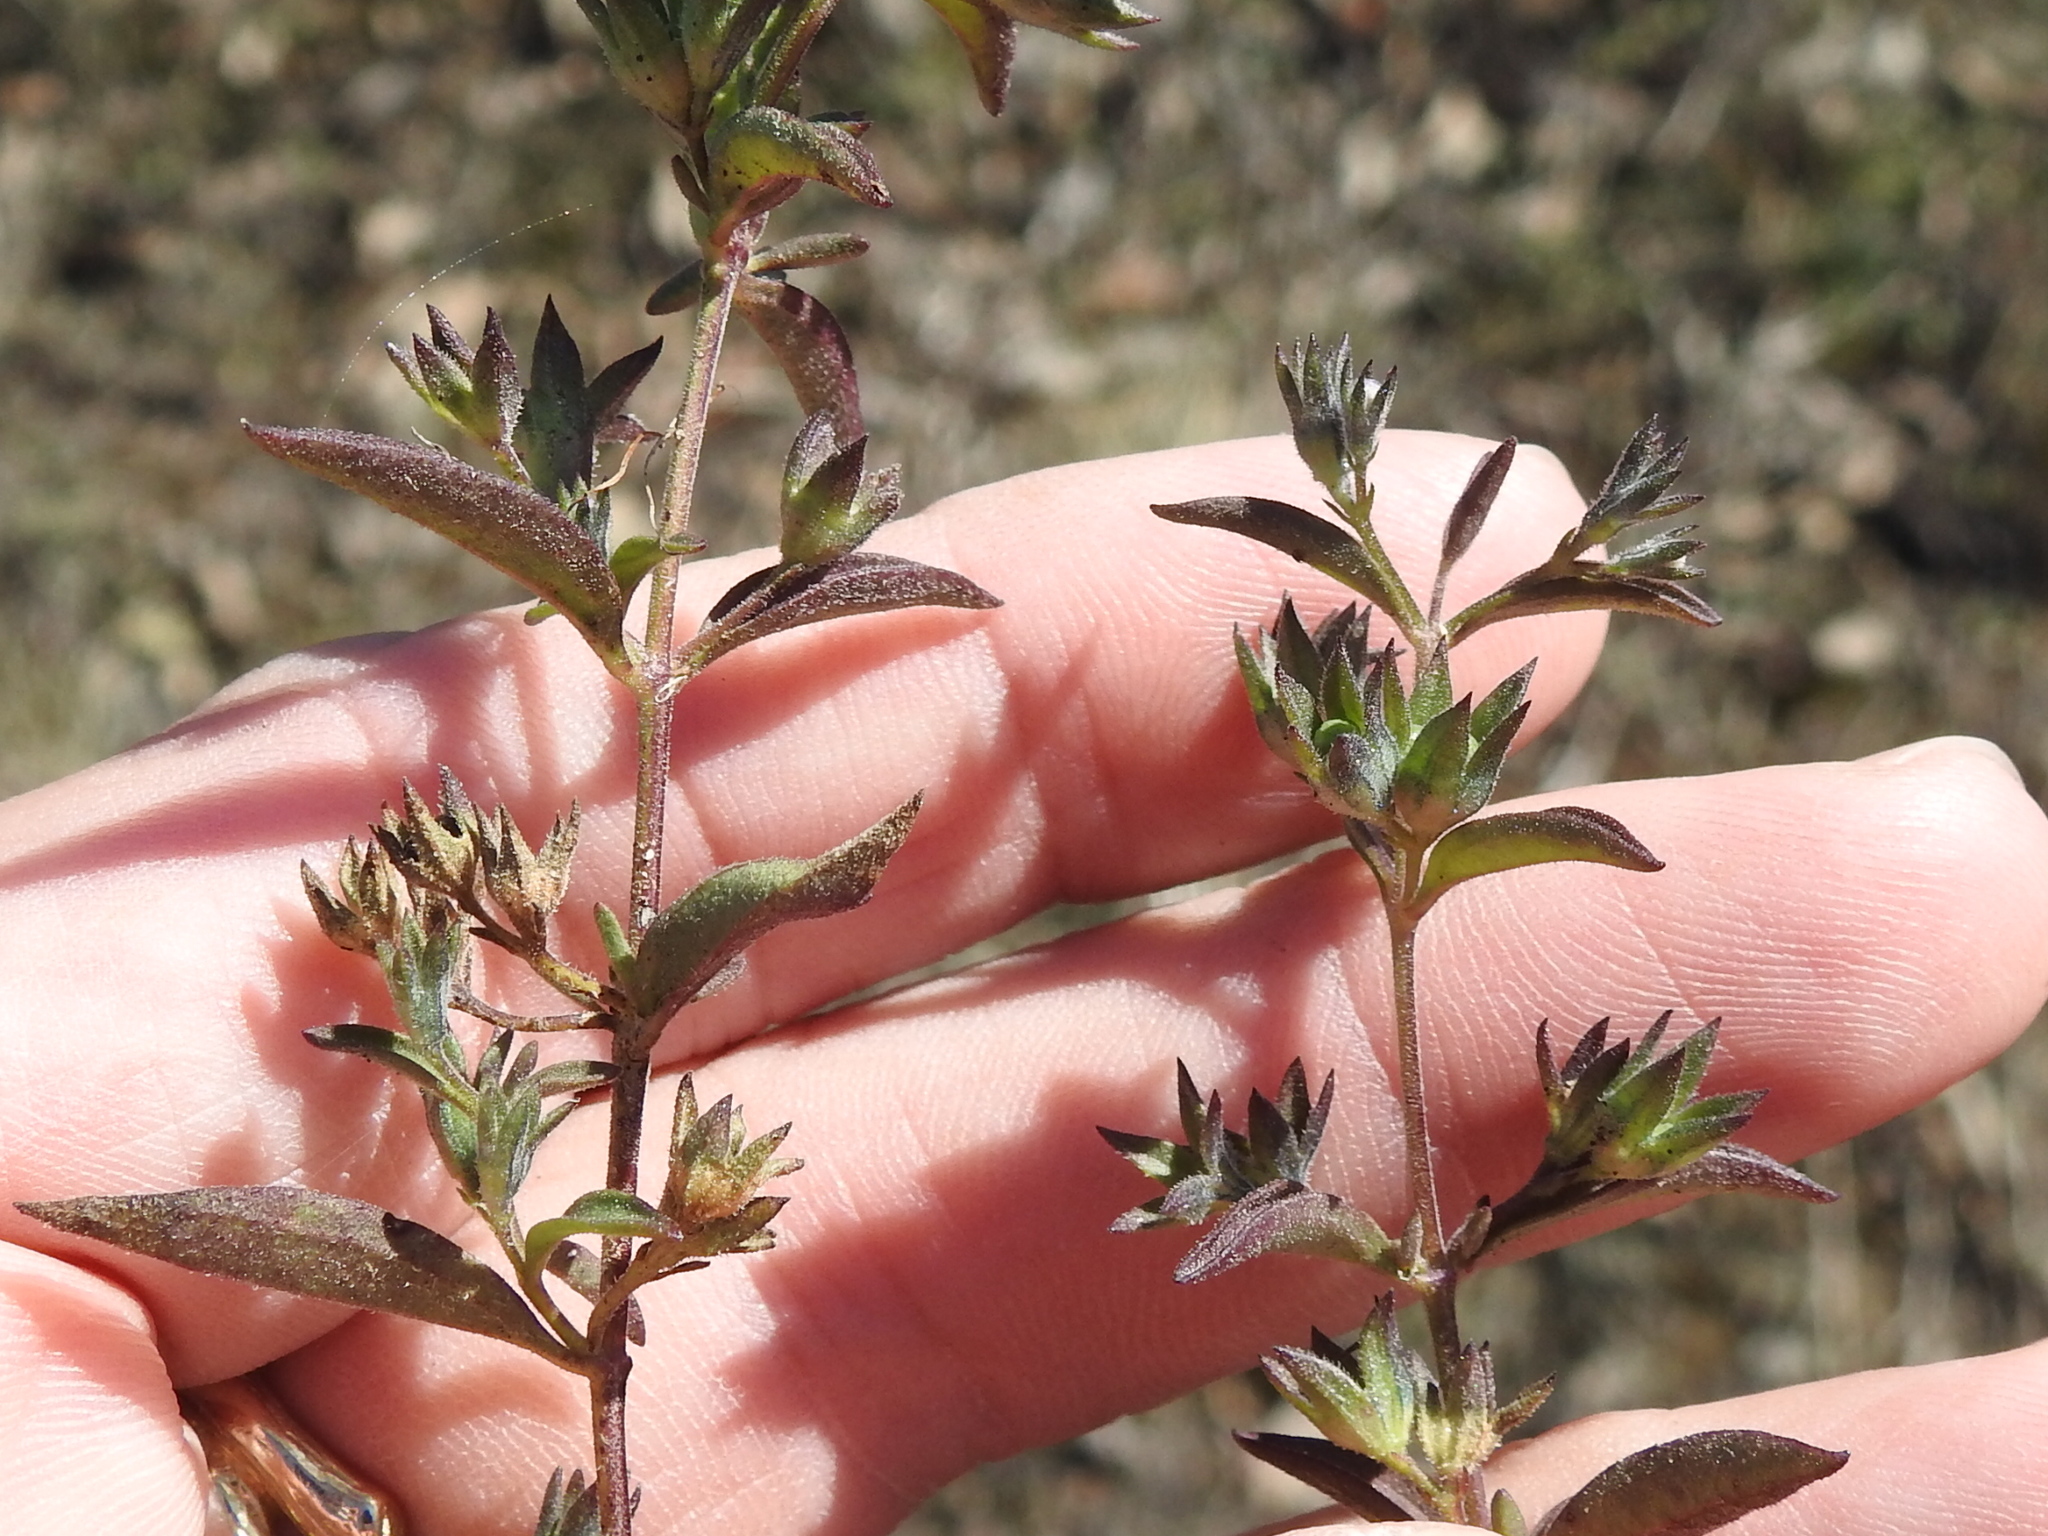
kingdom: Plantae
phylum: Tracheophyta
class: Magnoliopsida
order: Lamiales
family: Lamiaceae
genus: Trichostema
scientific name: Trichostema brachiatum
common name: False pennyroyal
